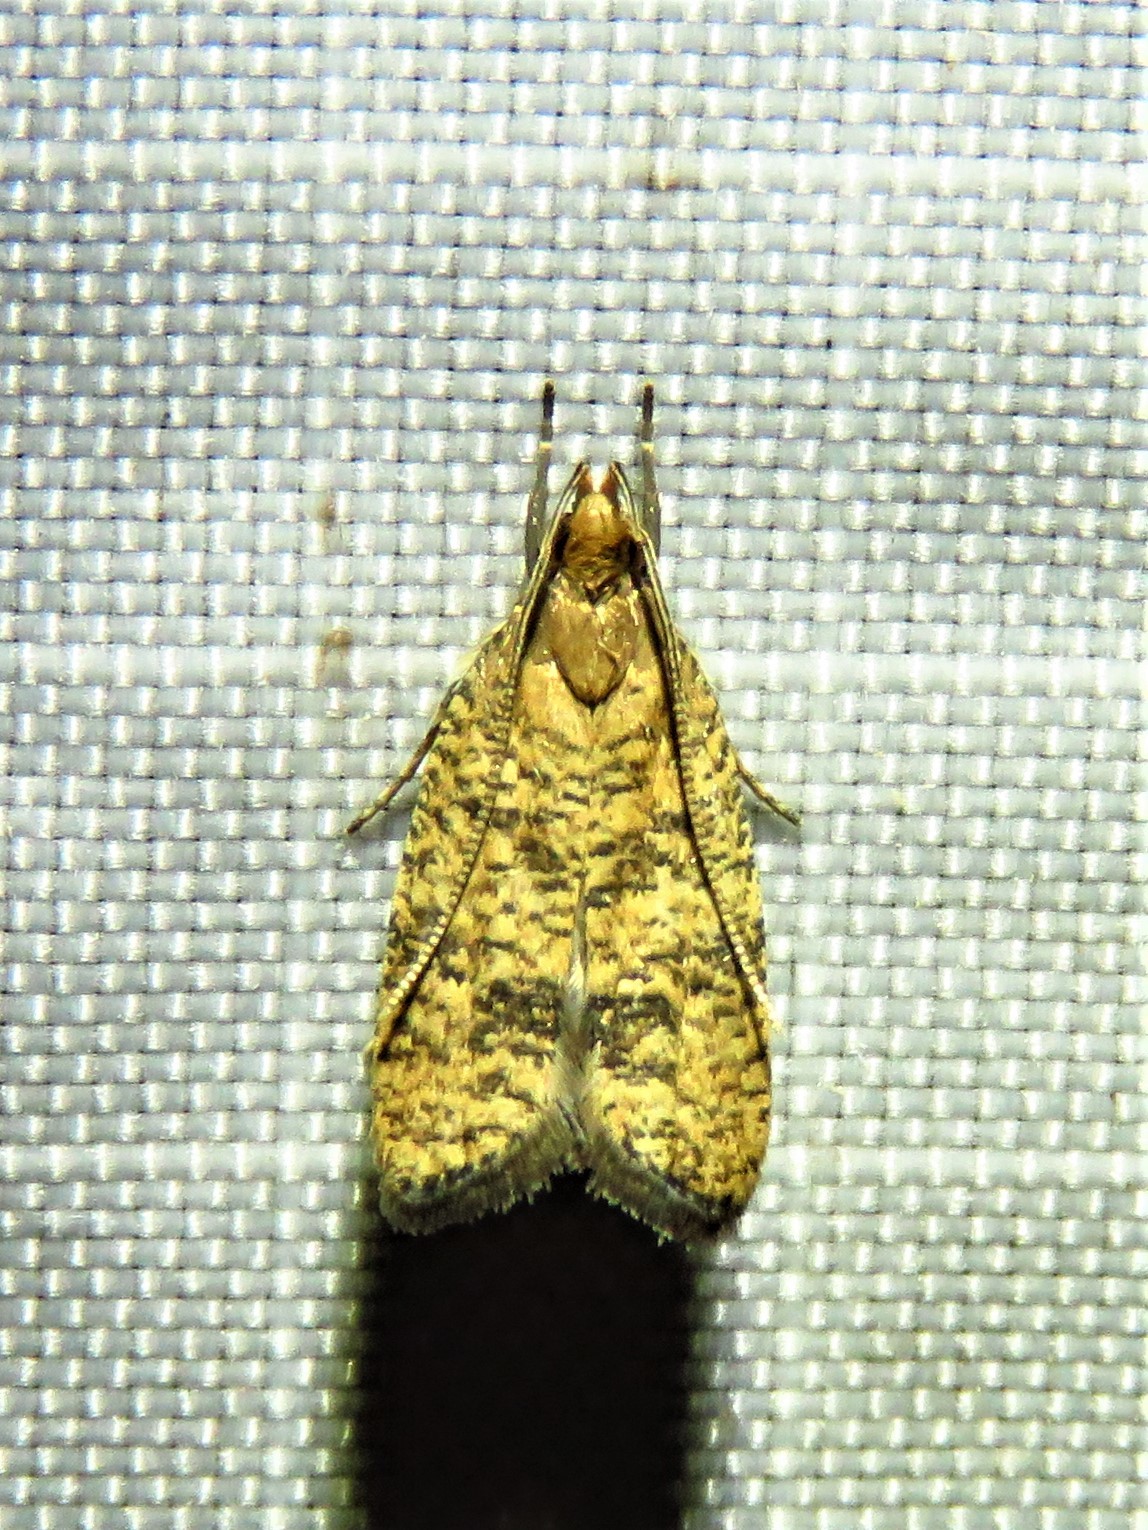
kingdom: Animalia
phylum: Arthropoda
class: Insecta
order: Lepidoptera
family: Depressariidae
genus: Psilocorsis
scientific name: Psilocorsis quercicella
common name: Oak leaftier moth
